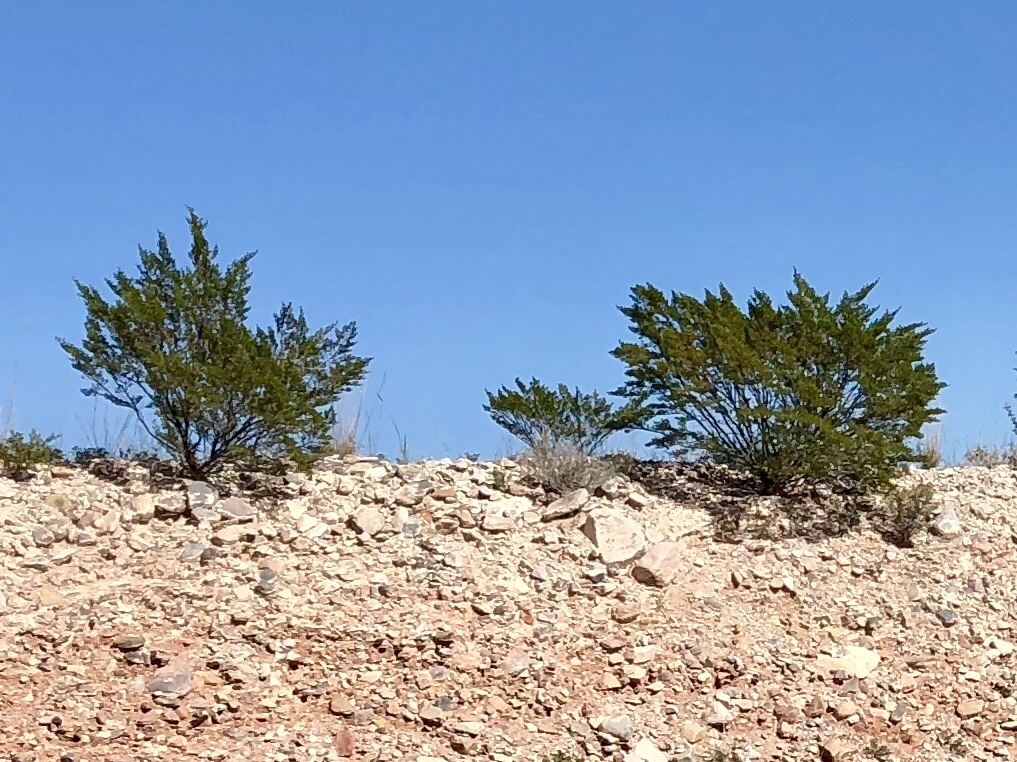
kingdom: Plantae
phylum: Tracheophyta
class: Magnoliopsida
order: Zygophyllales
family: Zygophyllaceae
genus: Larrea
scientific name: Larrea tridentata
